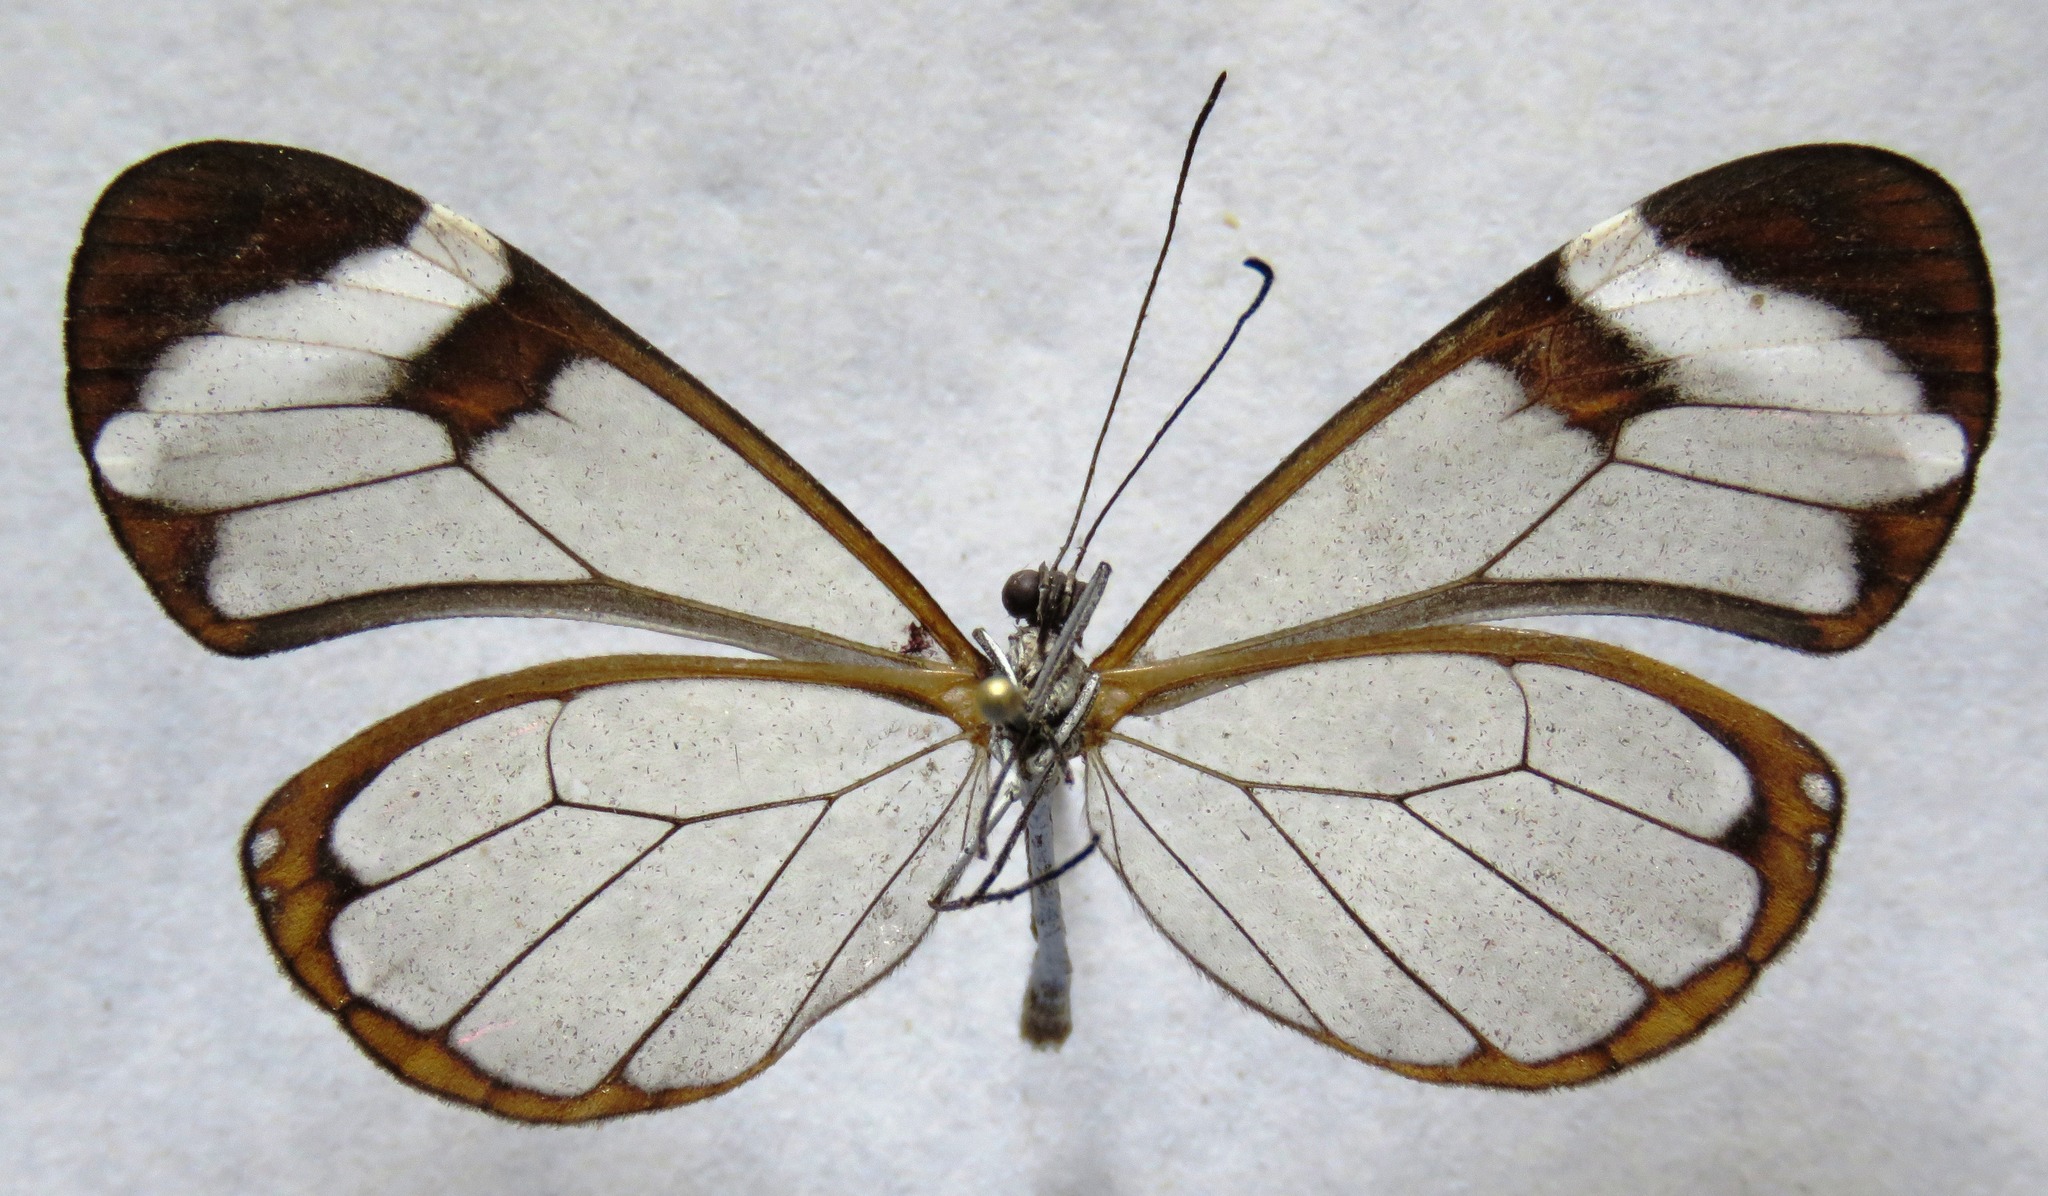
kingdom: Animalia
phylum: Arthropoda
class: Insecta
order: Lepidoptera
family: Nymphalidae
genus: Greta
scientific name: Greta morgane
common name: Thick-tipped greta
